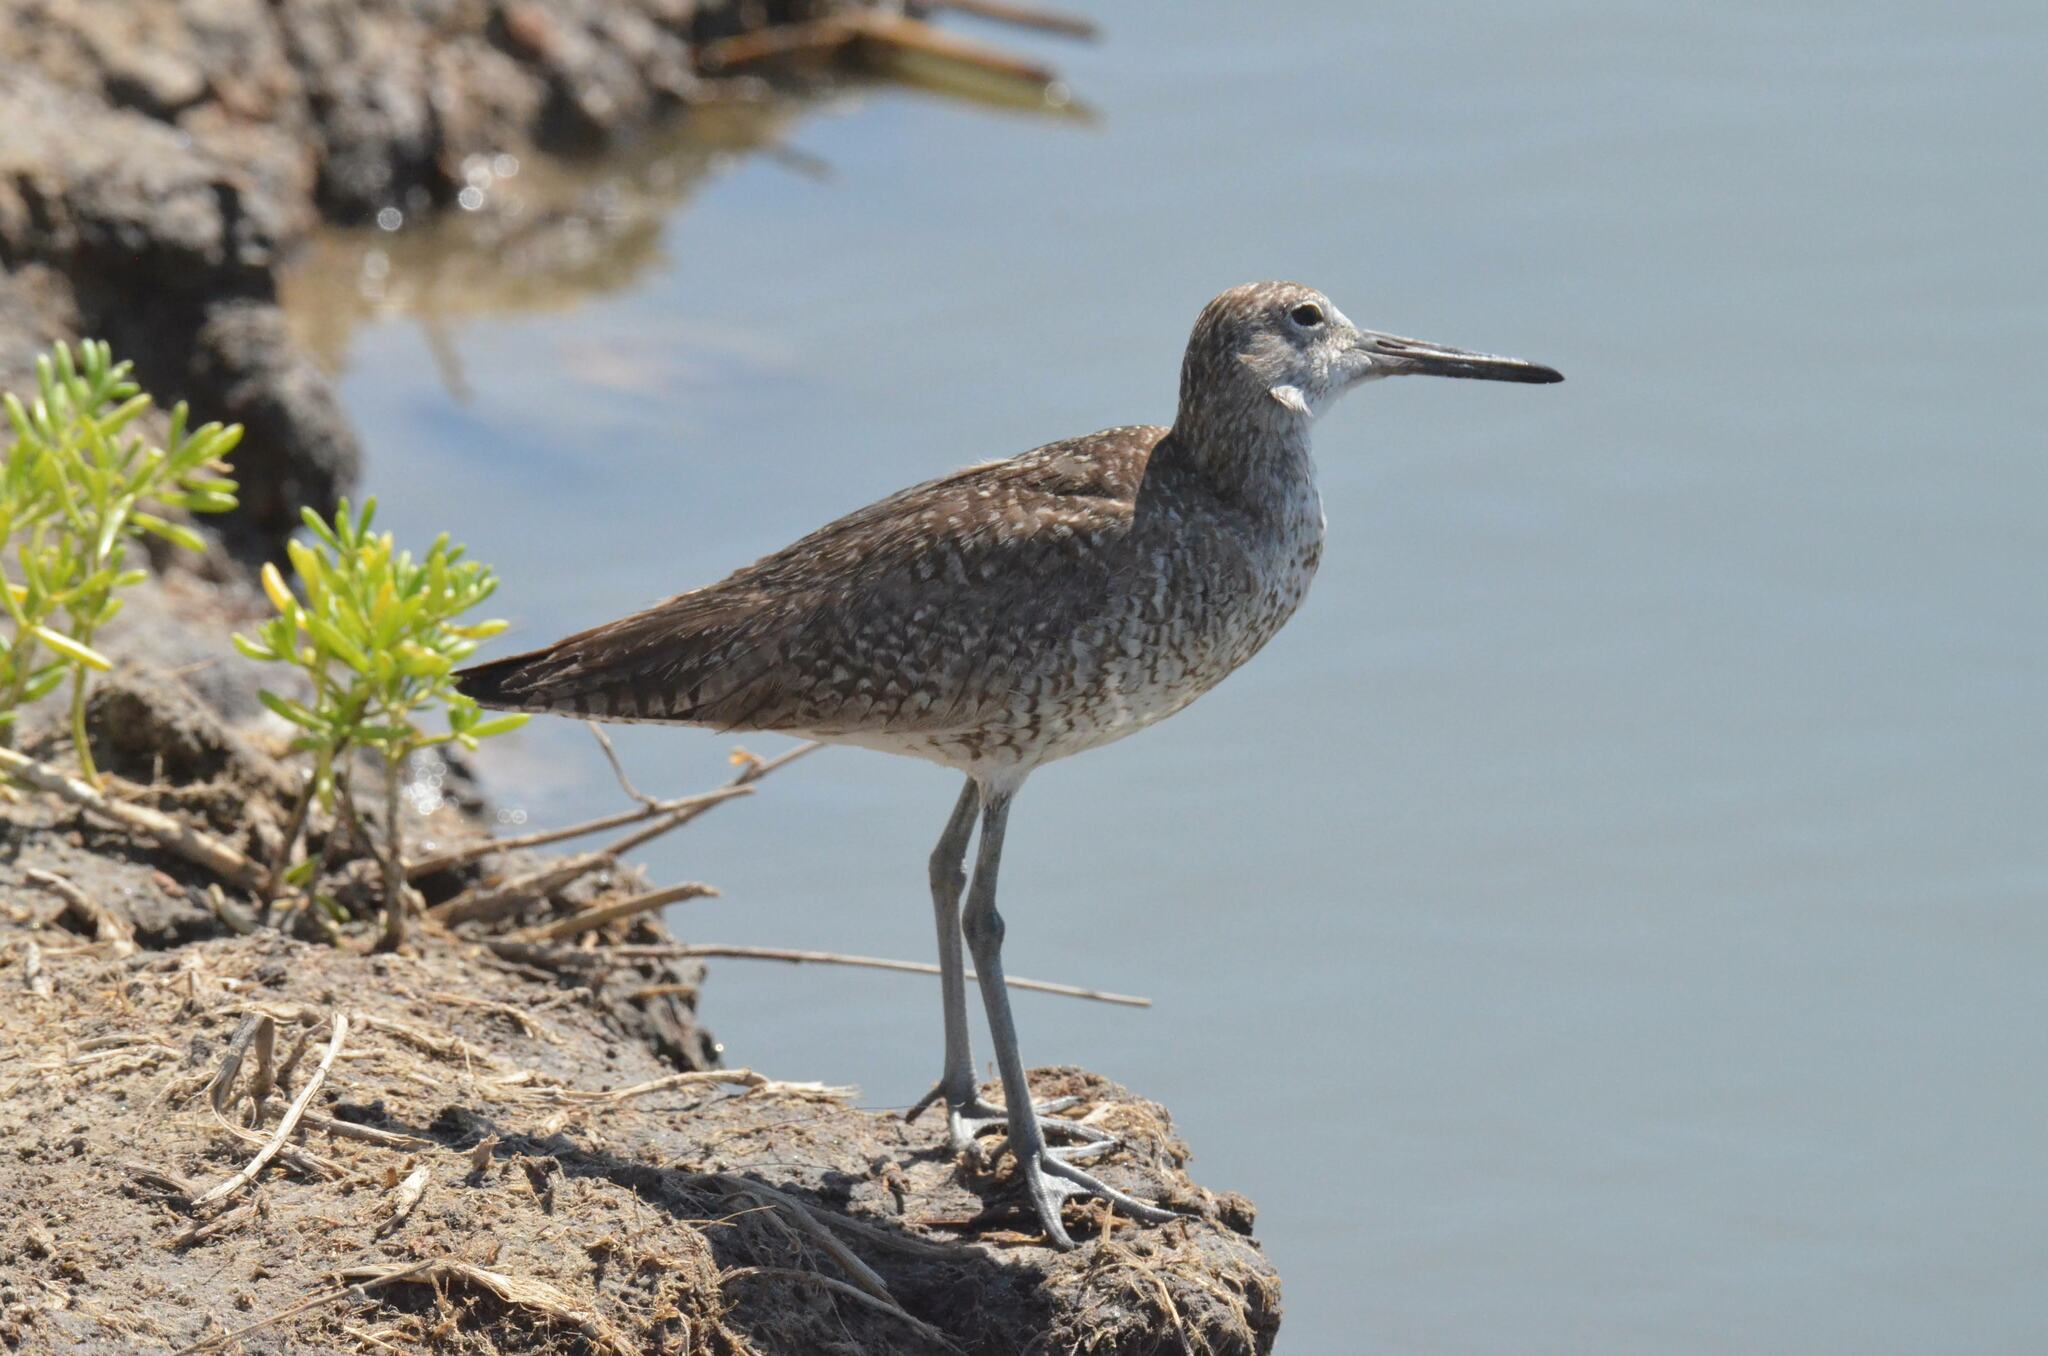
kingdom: Animalia
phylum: Chordata
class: Aves
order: Charadriiformes
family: Scolopacidae
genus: Tringa
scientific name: Tringa semipalmata
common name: Willet
